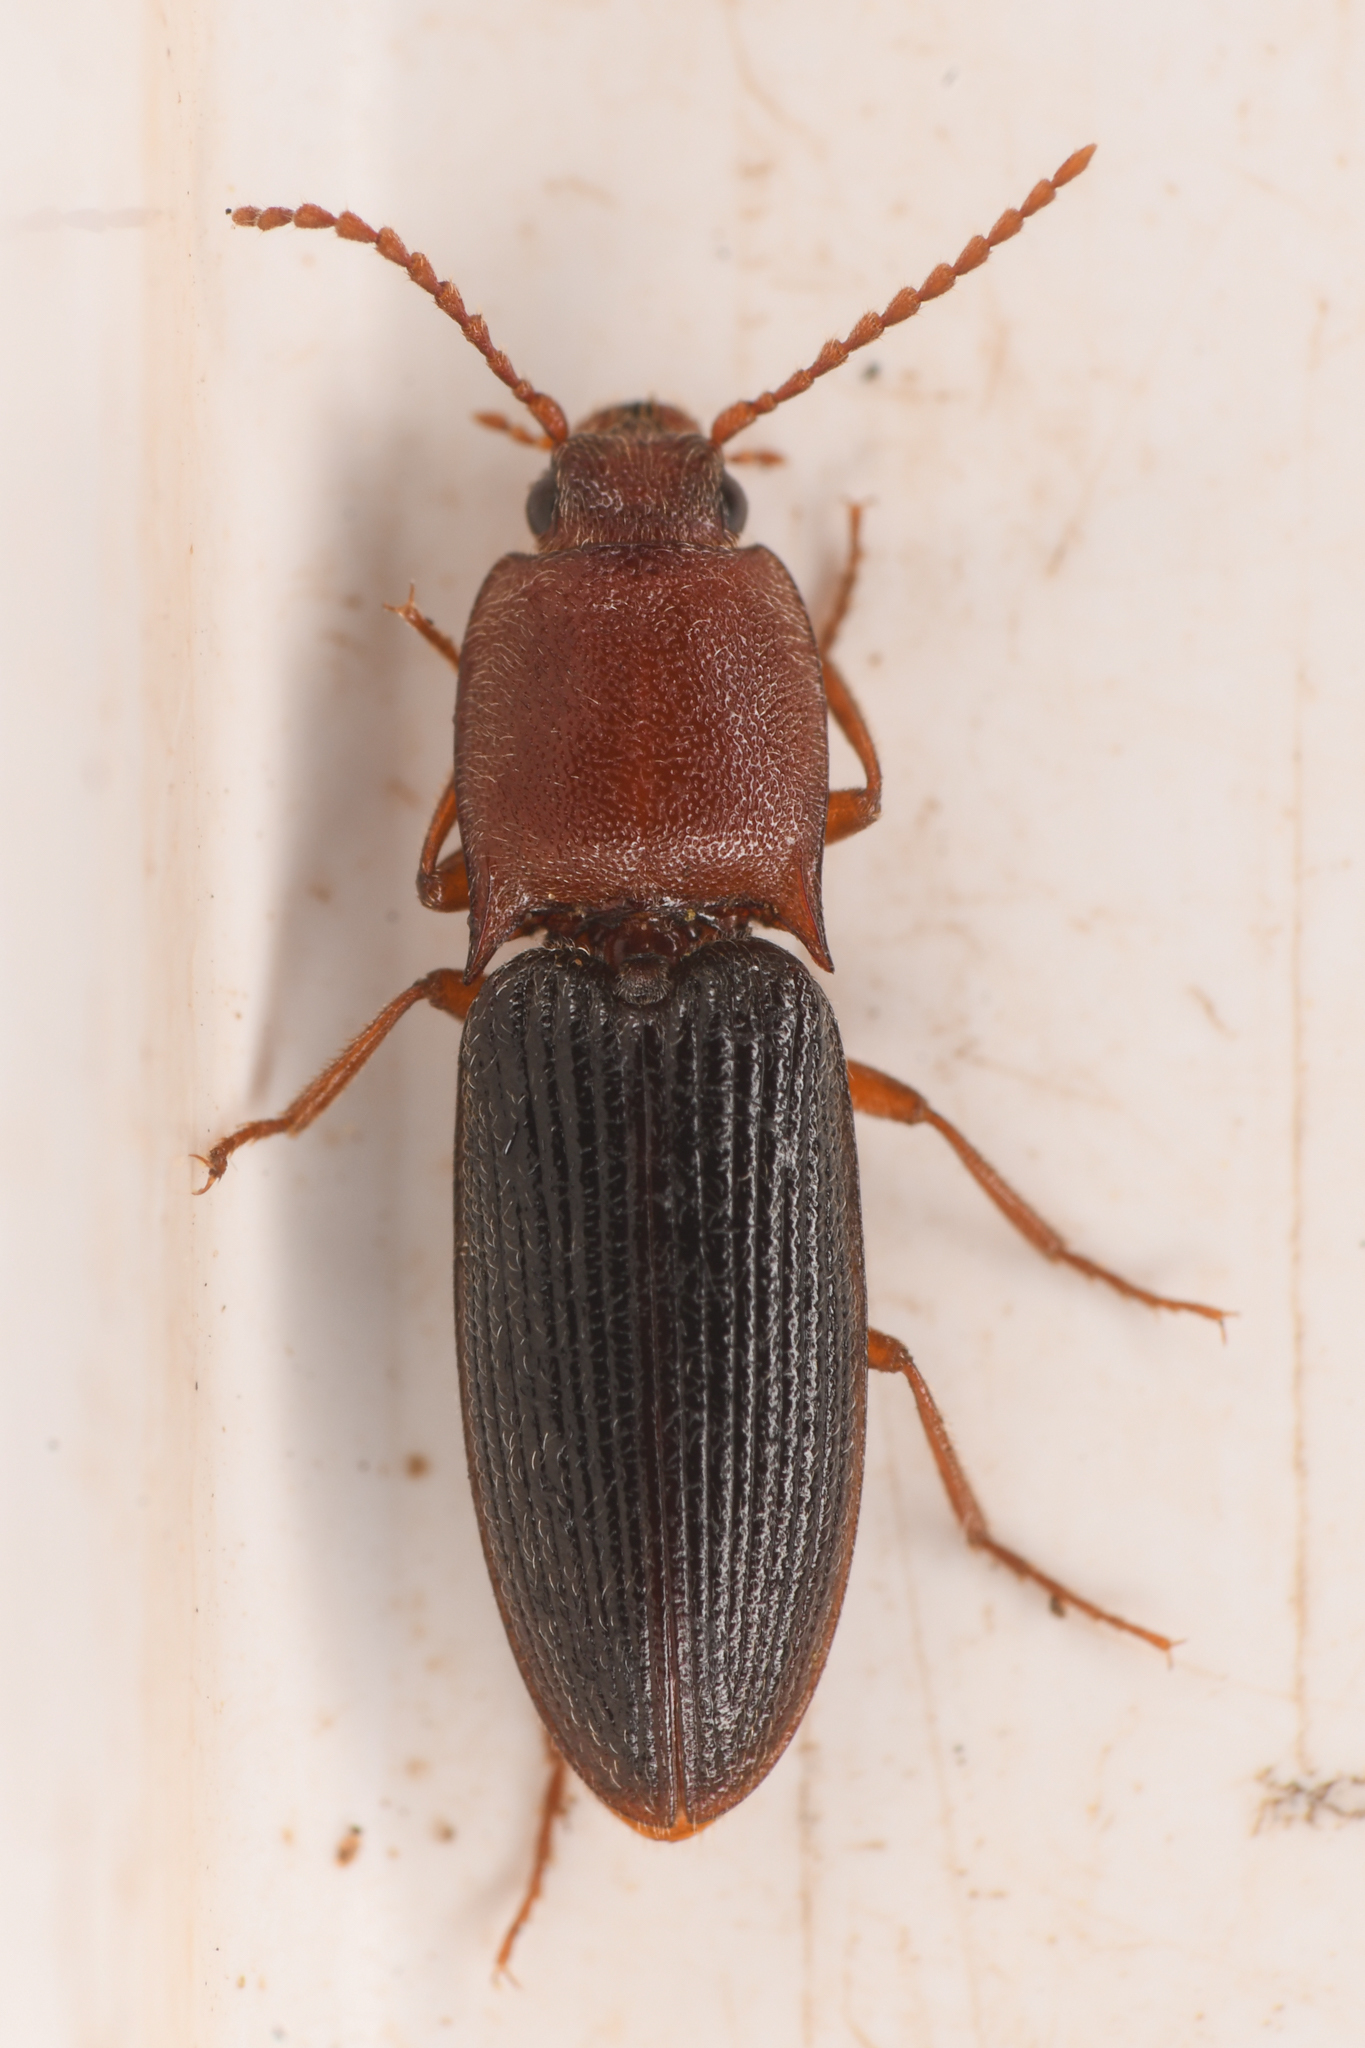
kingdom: Animalia
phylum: Arthropoda
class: Insecta
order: Coleoptera
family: Curculionidae
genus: Brownia
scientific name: Brownia
